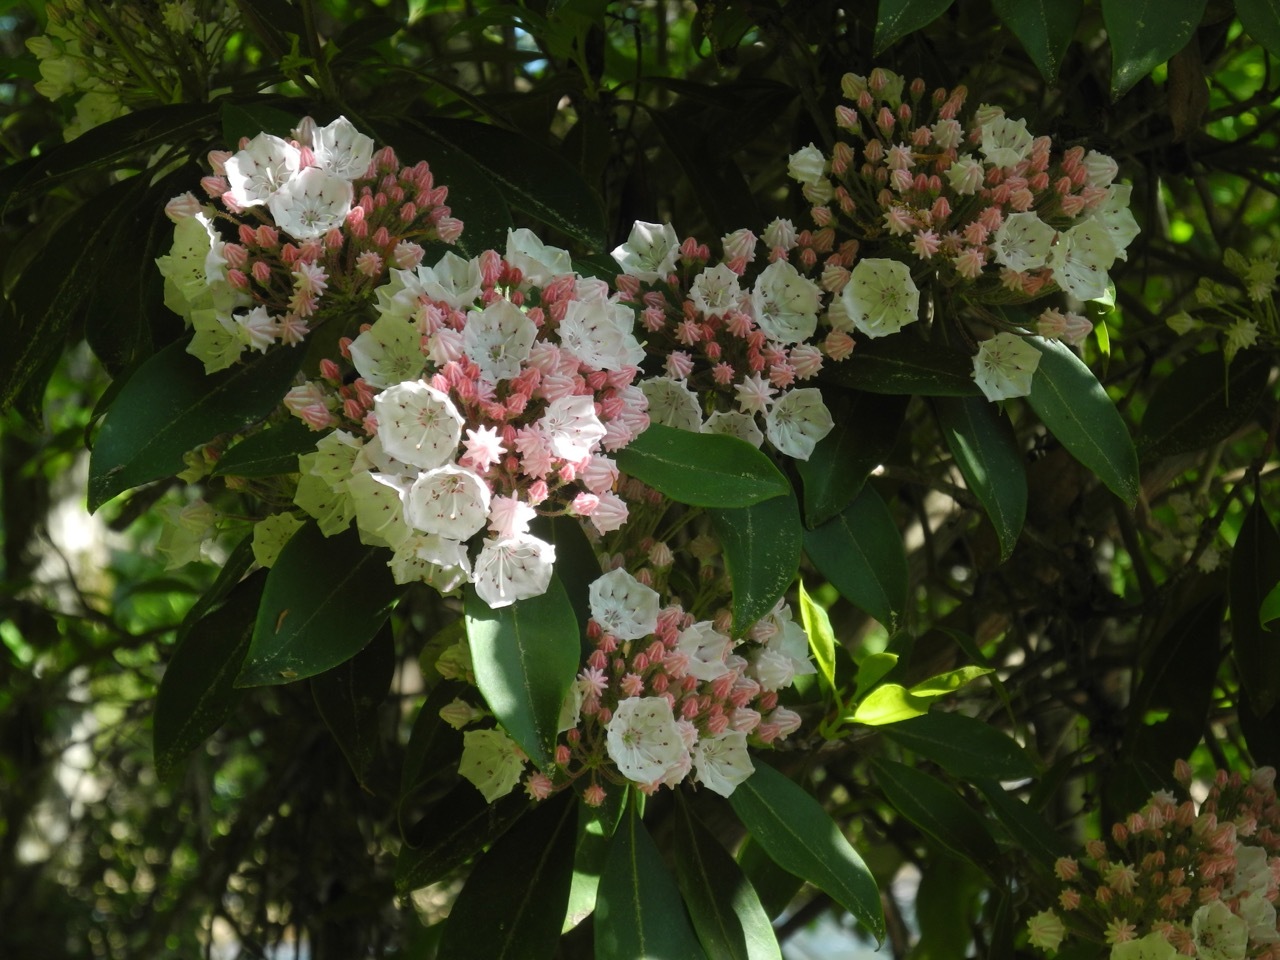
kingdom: Plantae
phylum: Tracheophyta
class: Magnoliopsida
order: Ericales
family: Ericaceae
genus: Kalmia
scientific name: Kalmia latifolia
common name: Mountain-laurel
